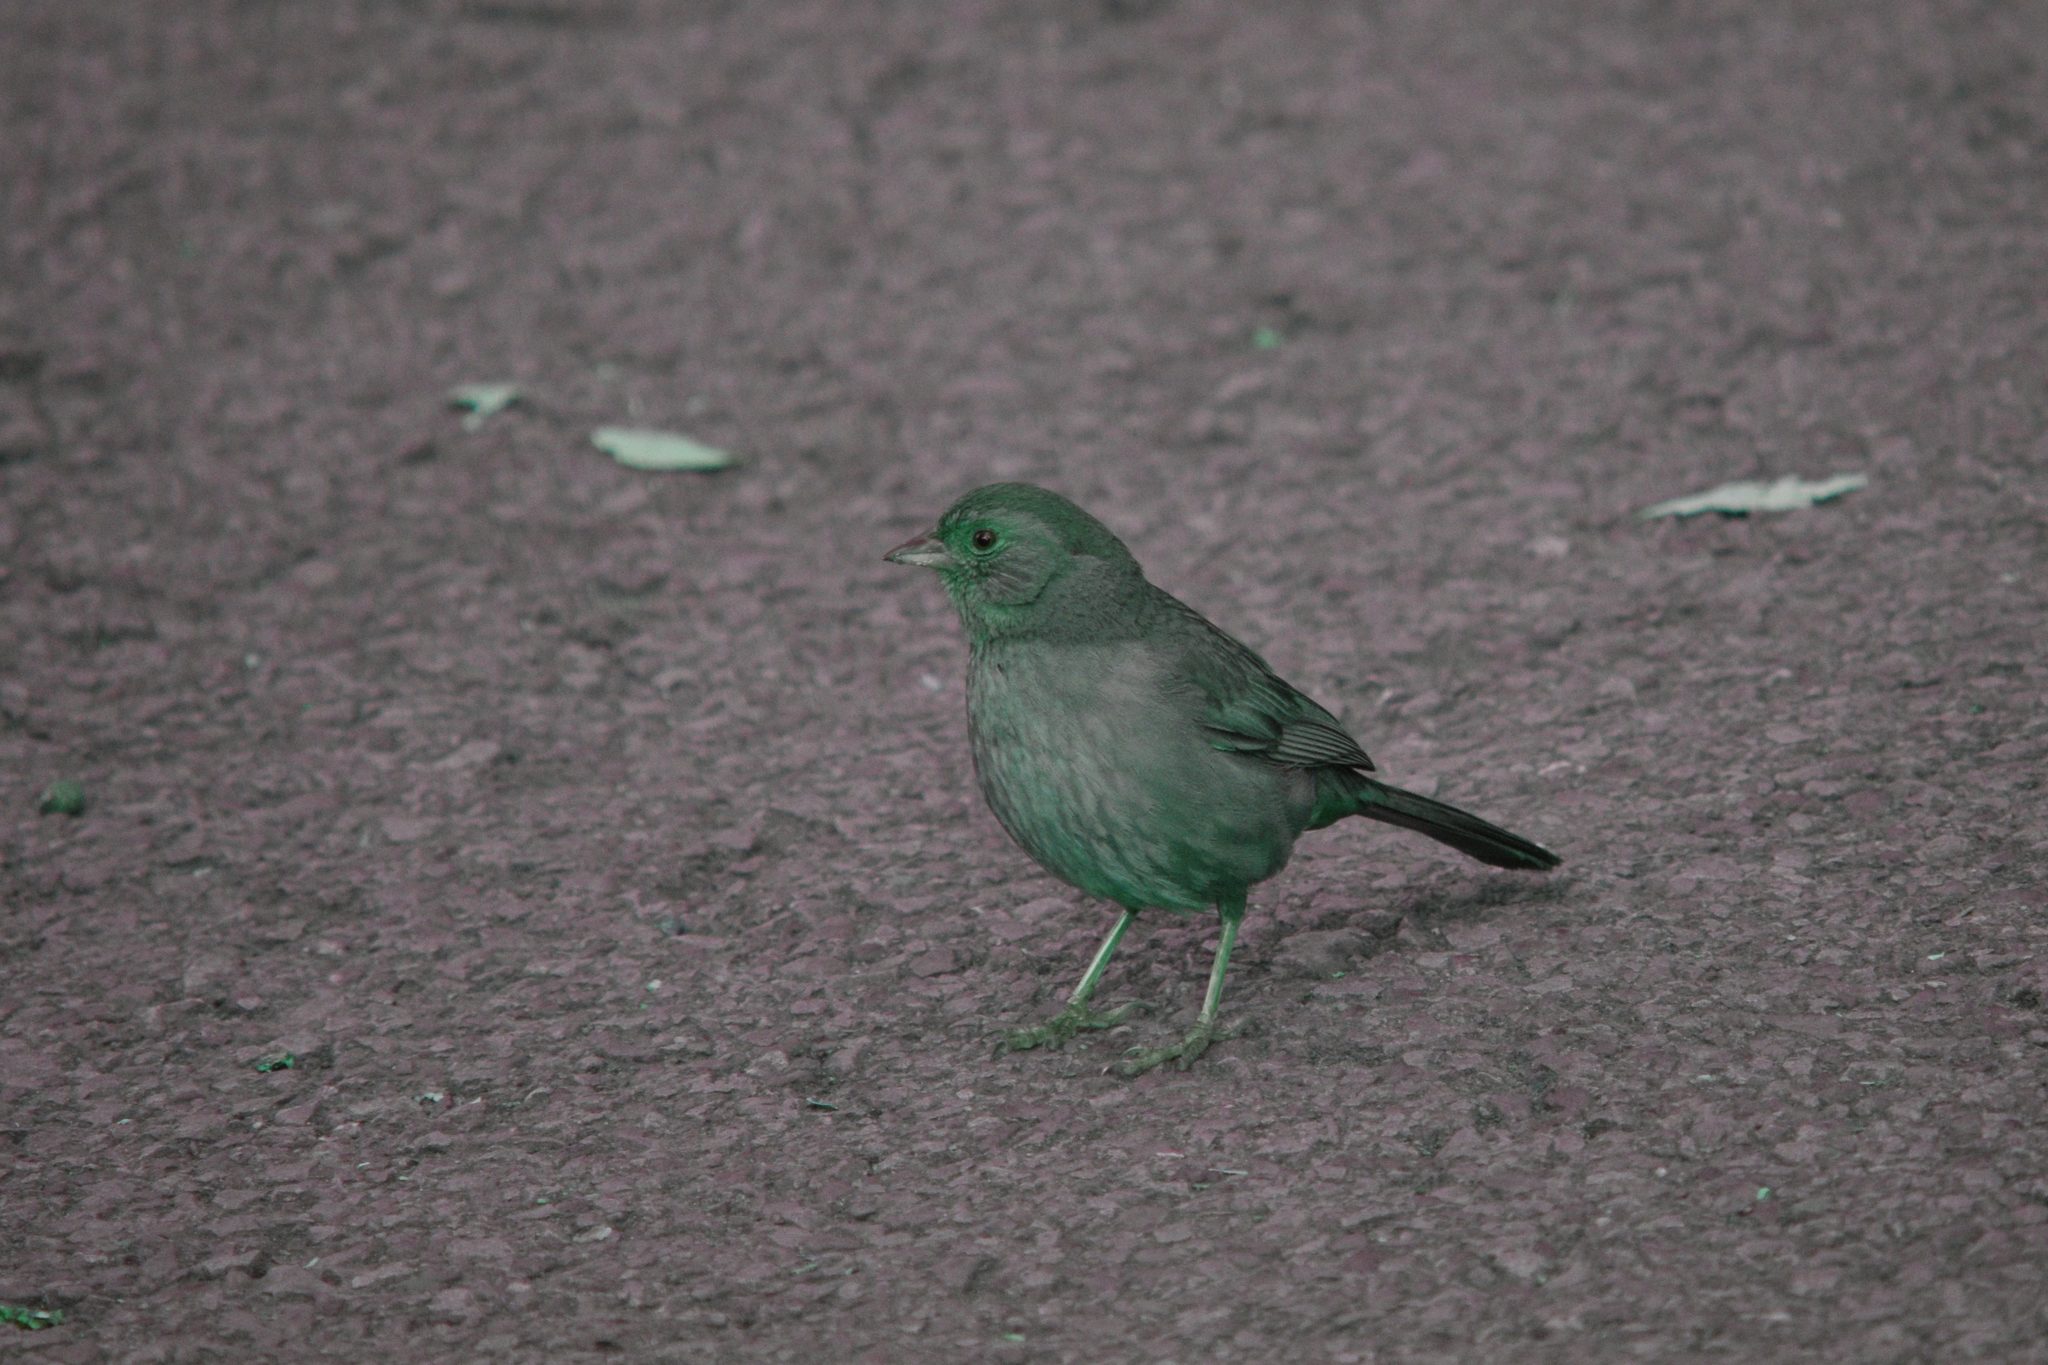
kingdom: Animalia
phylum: Chordata
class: Aves
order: Passeriformes
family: Passerellidae
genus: Melozone
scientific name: Melozone crissalis
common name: California towhee
